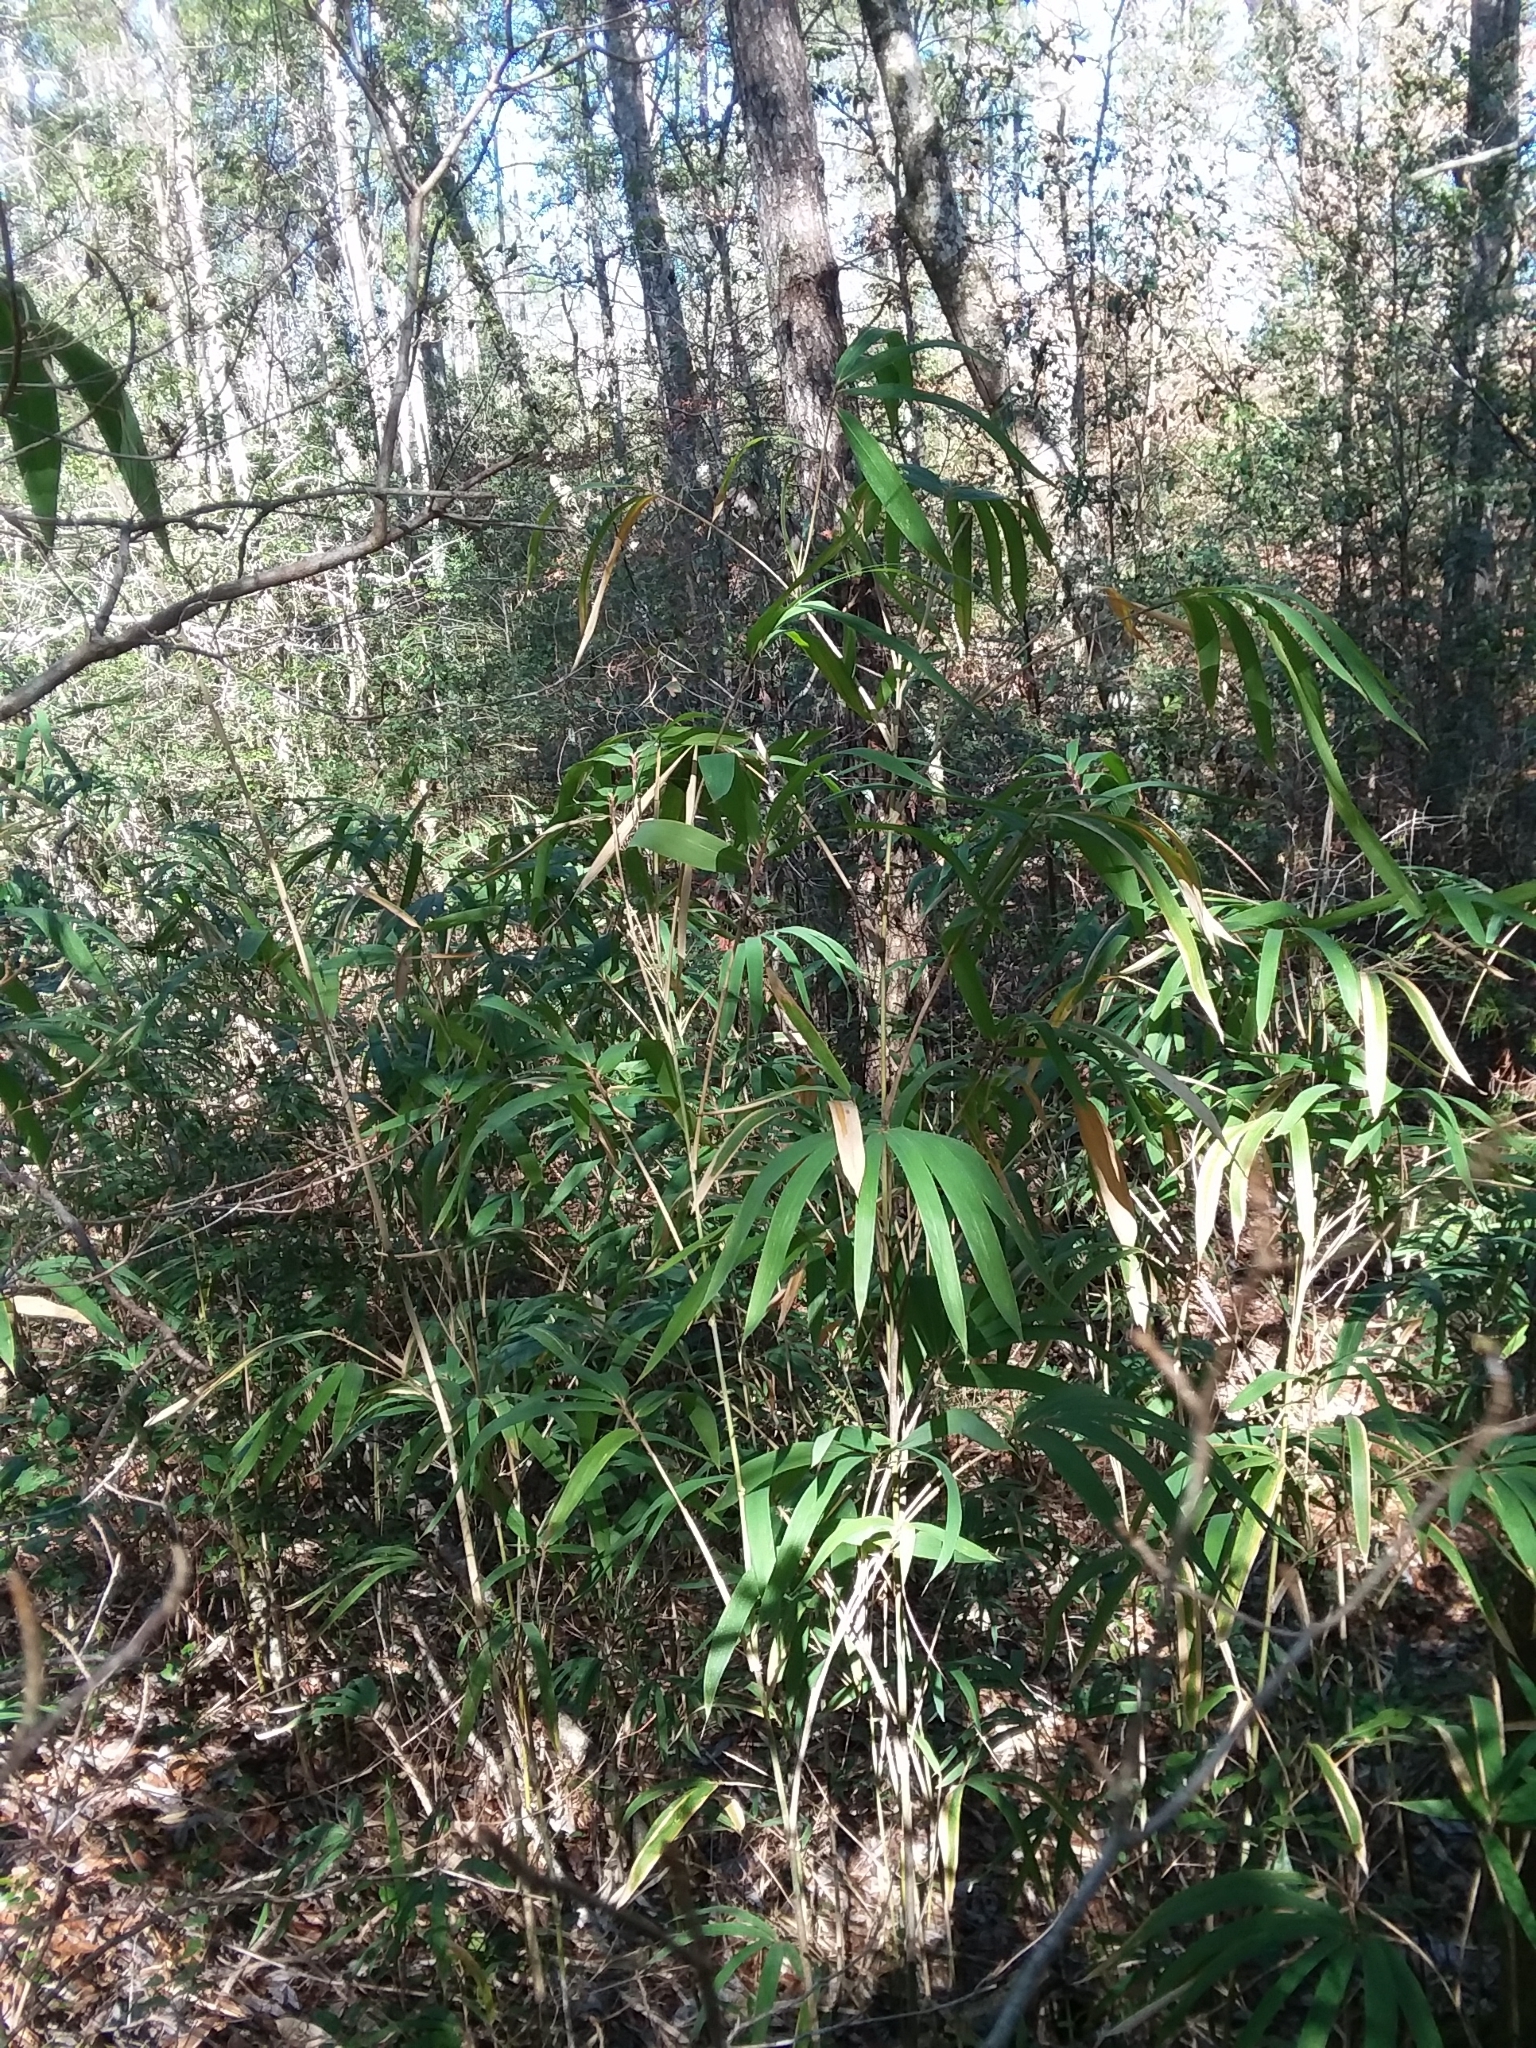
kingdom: Plantae
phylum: Tracheophyta
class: Liliopsida
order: Poales
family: Poaceae
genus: Arundinaria
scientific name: Arundinaria tecta
